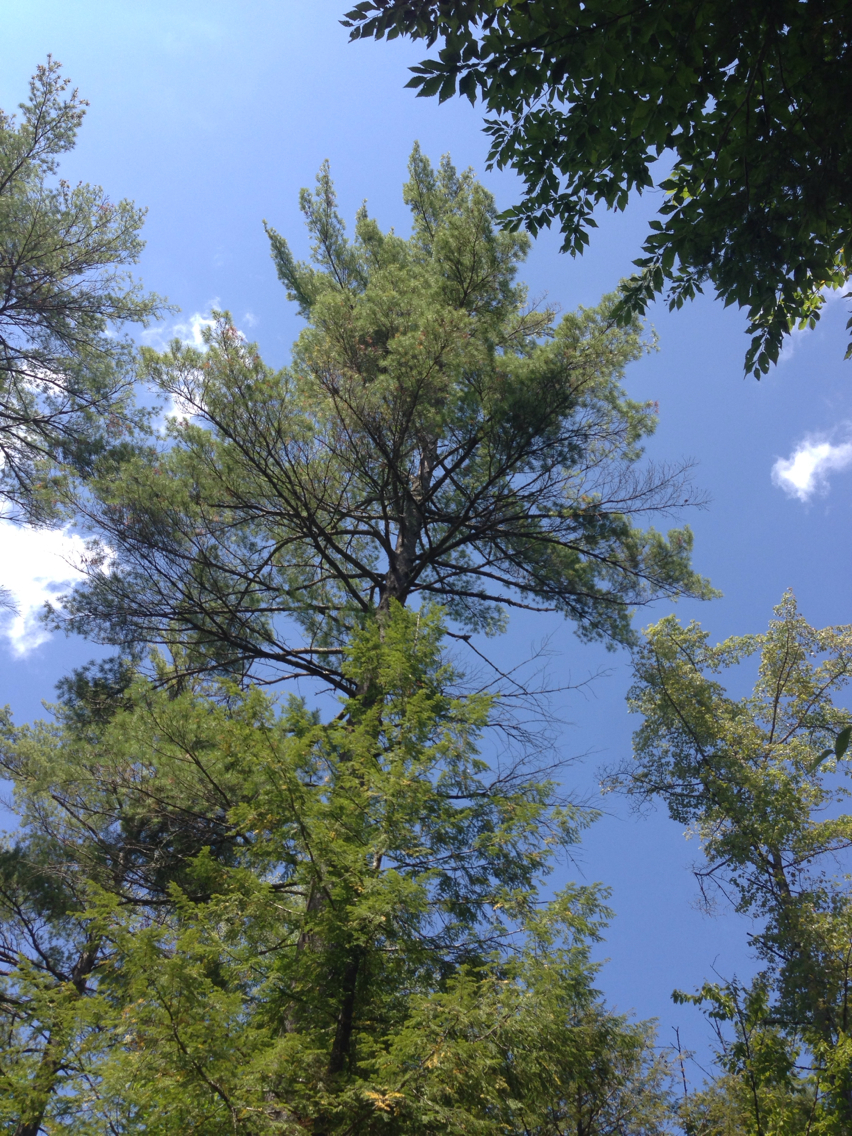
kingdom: Plantae
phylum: Tracheophyta
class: Pinopsida
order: Pinales
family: Pinaceae
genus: Pinus
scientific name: Pinus strobus
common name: Weymouth pine
